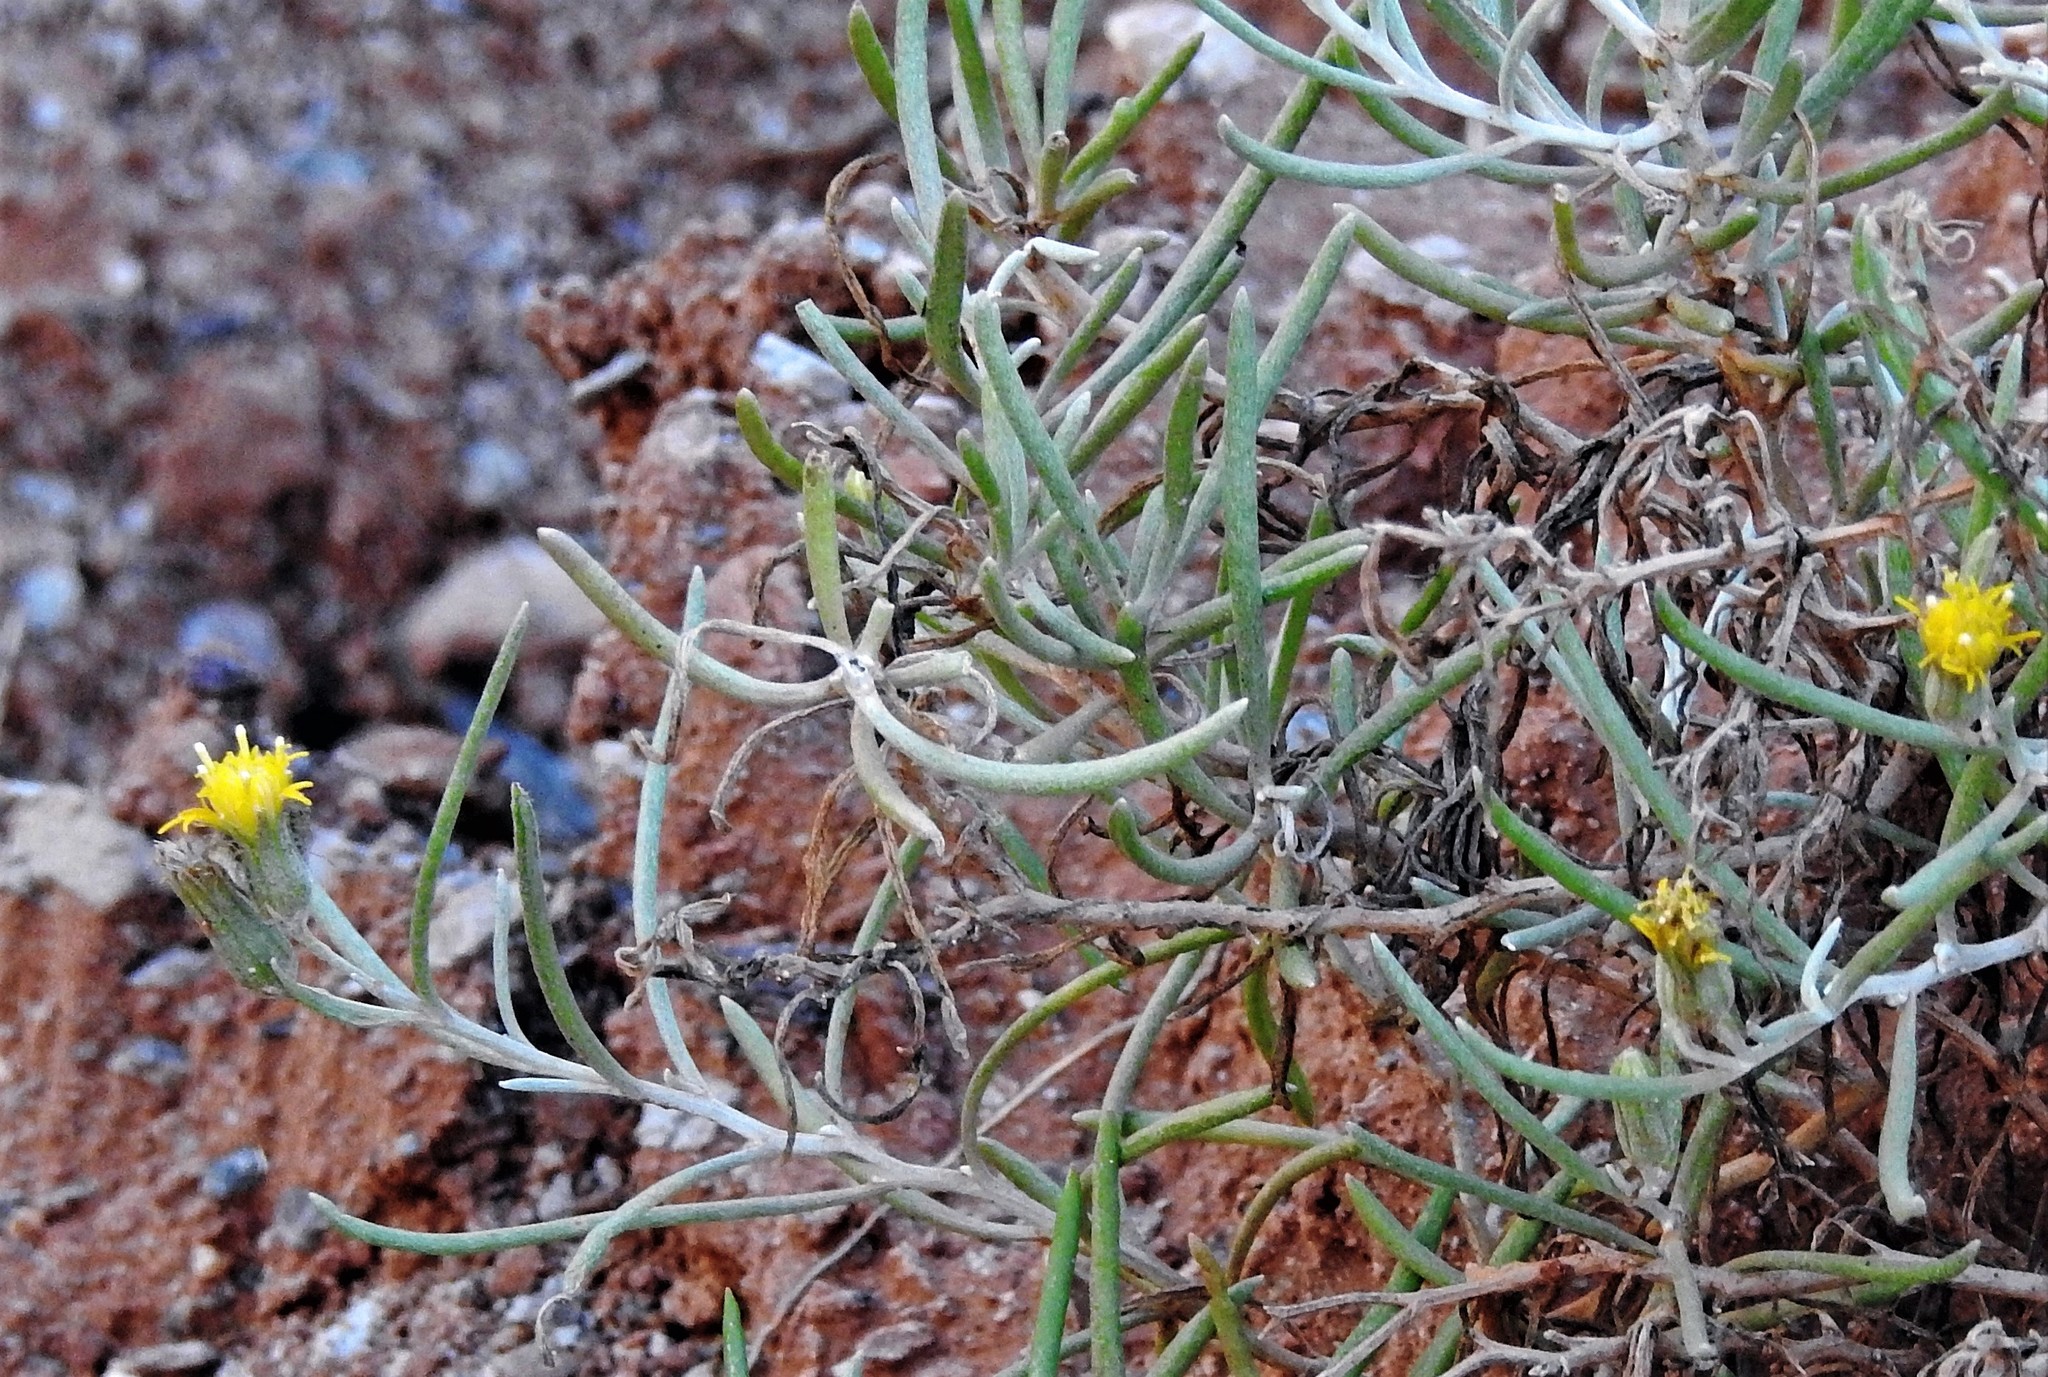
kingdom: Plantae
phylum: Tracheophyta
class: Magnoliopsida
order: Asterales
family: Asteraceae
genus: Senecio
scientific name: Senecio hualtaranensis
